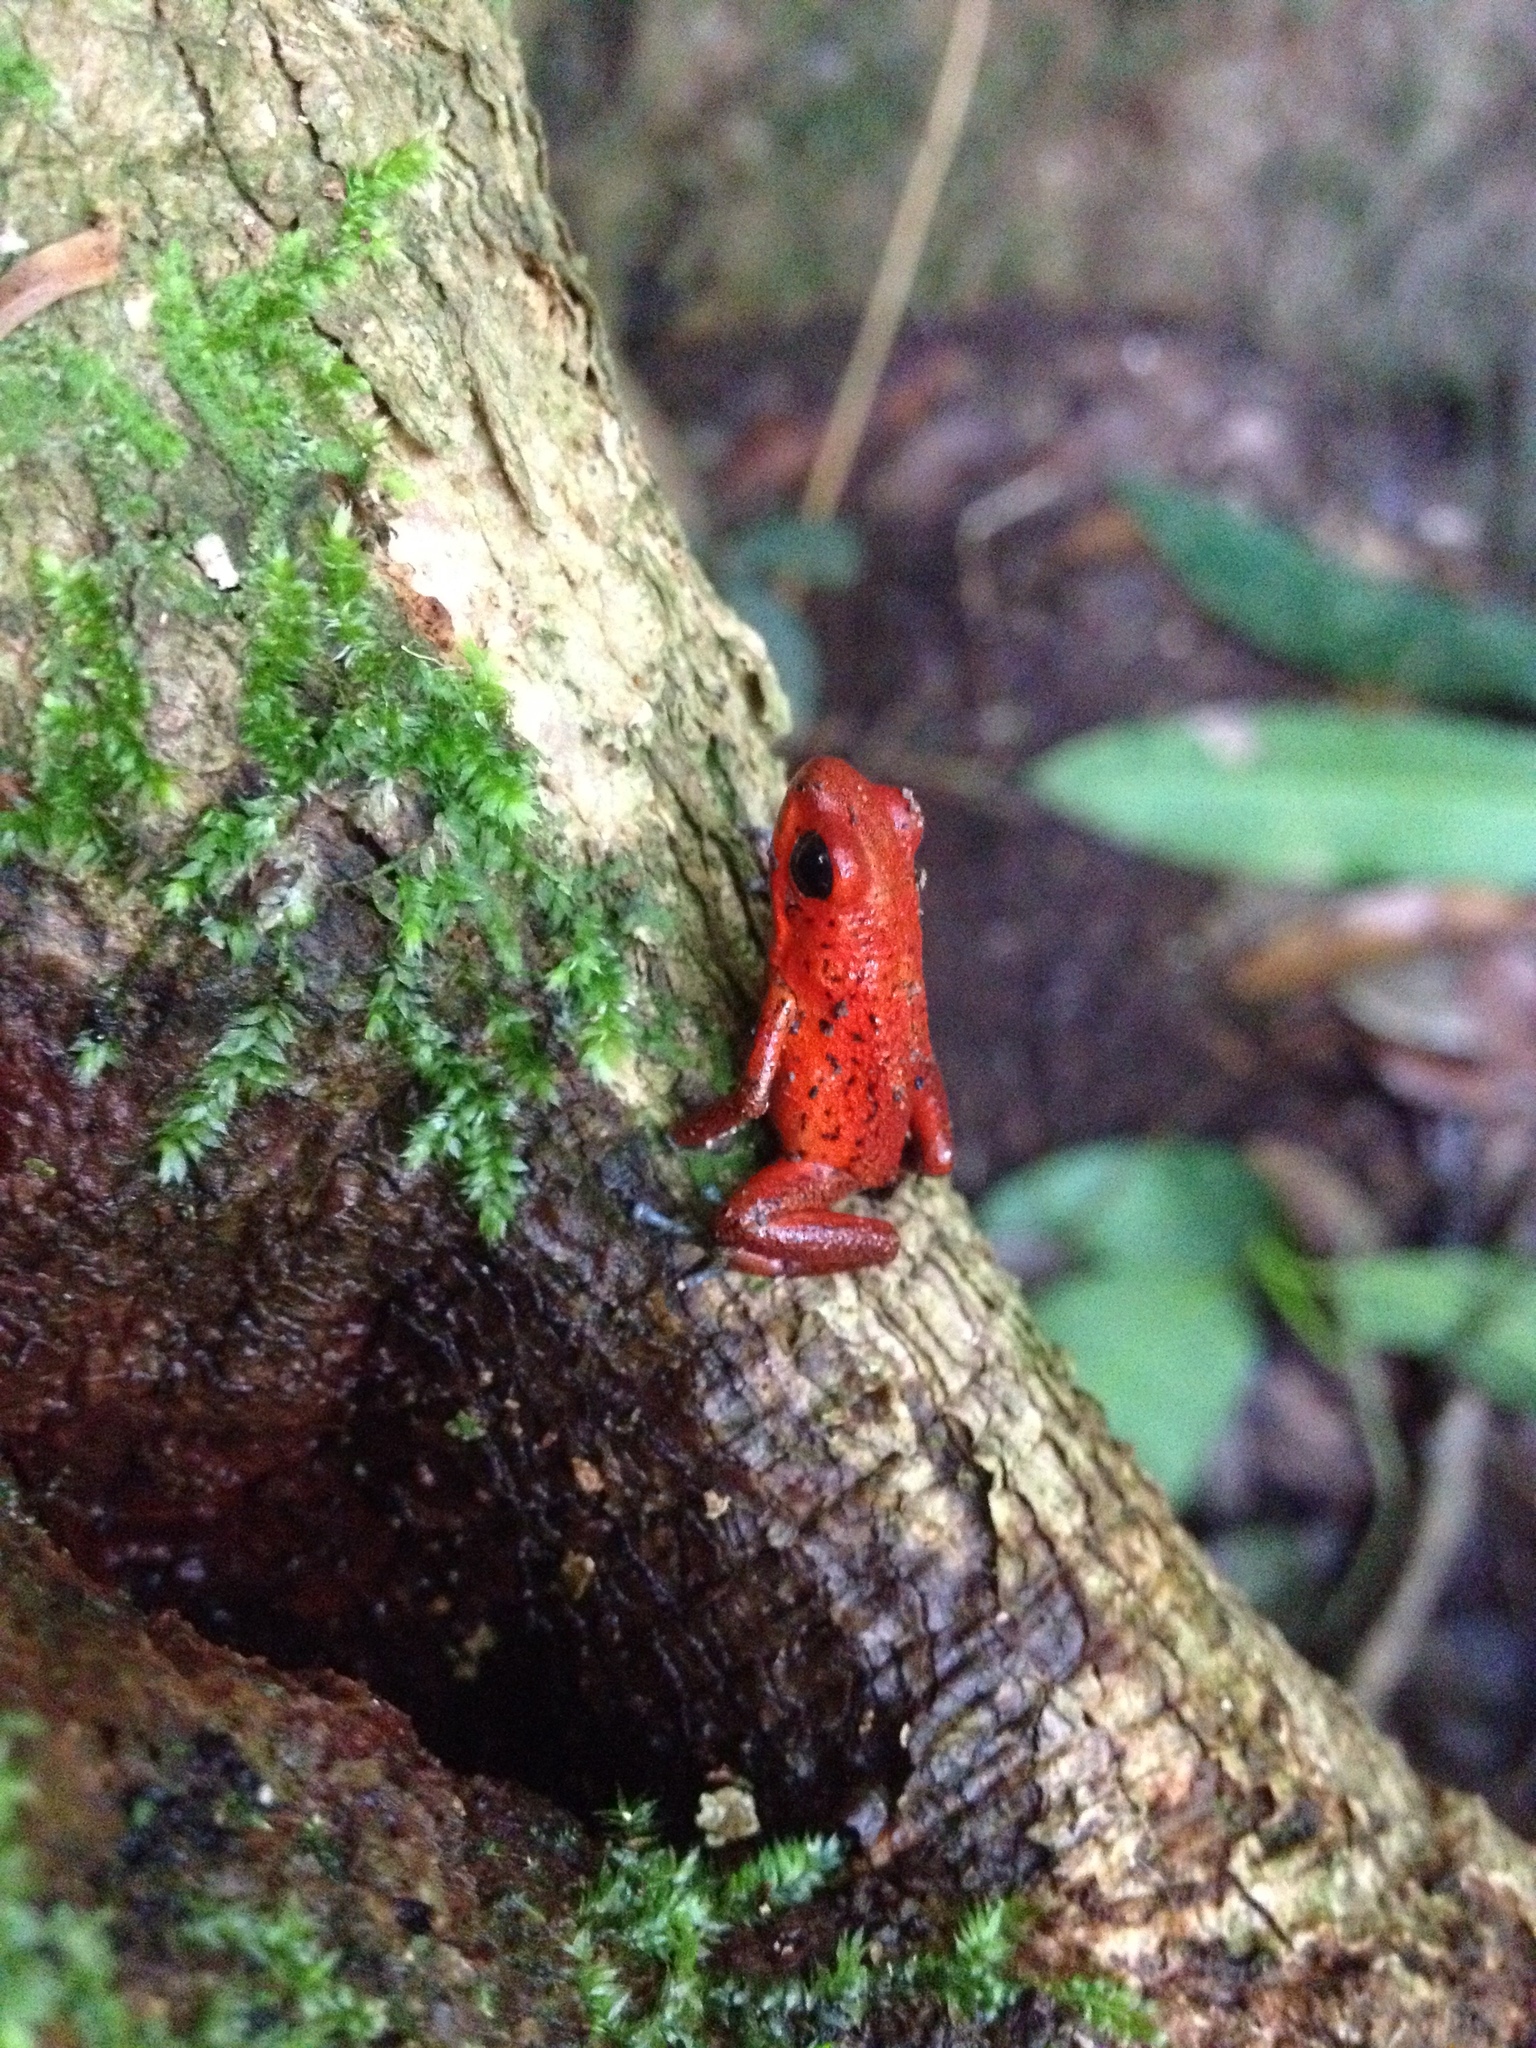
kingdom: Animalia
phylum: Chordata
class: Amphibia
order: Anura
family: Dendrobatidae
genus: Oophaga
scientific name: Oophaga pumilio
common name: Flaming poison frog
